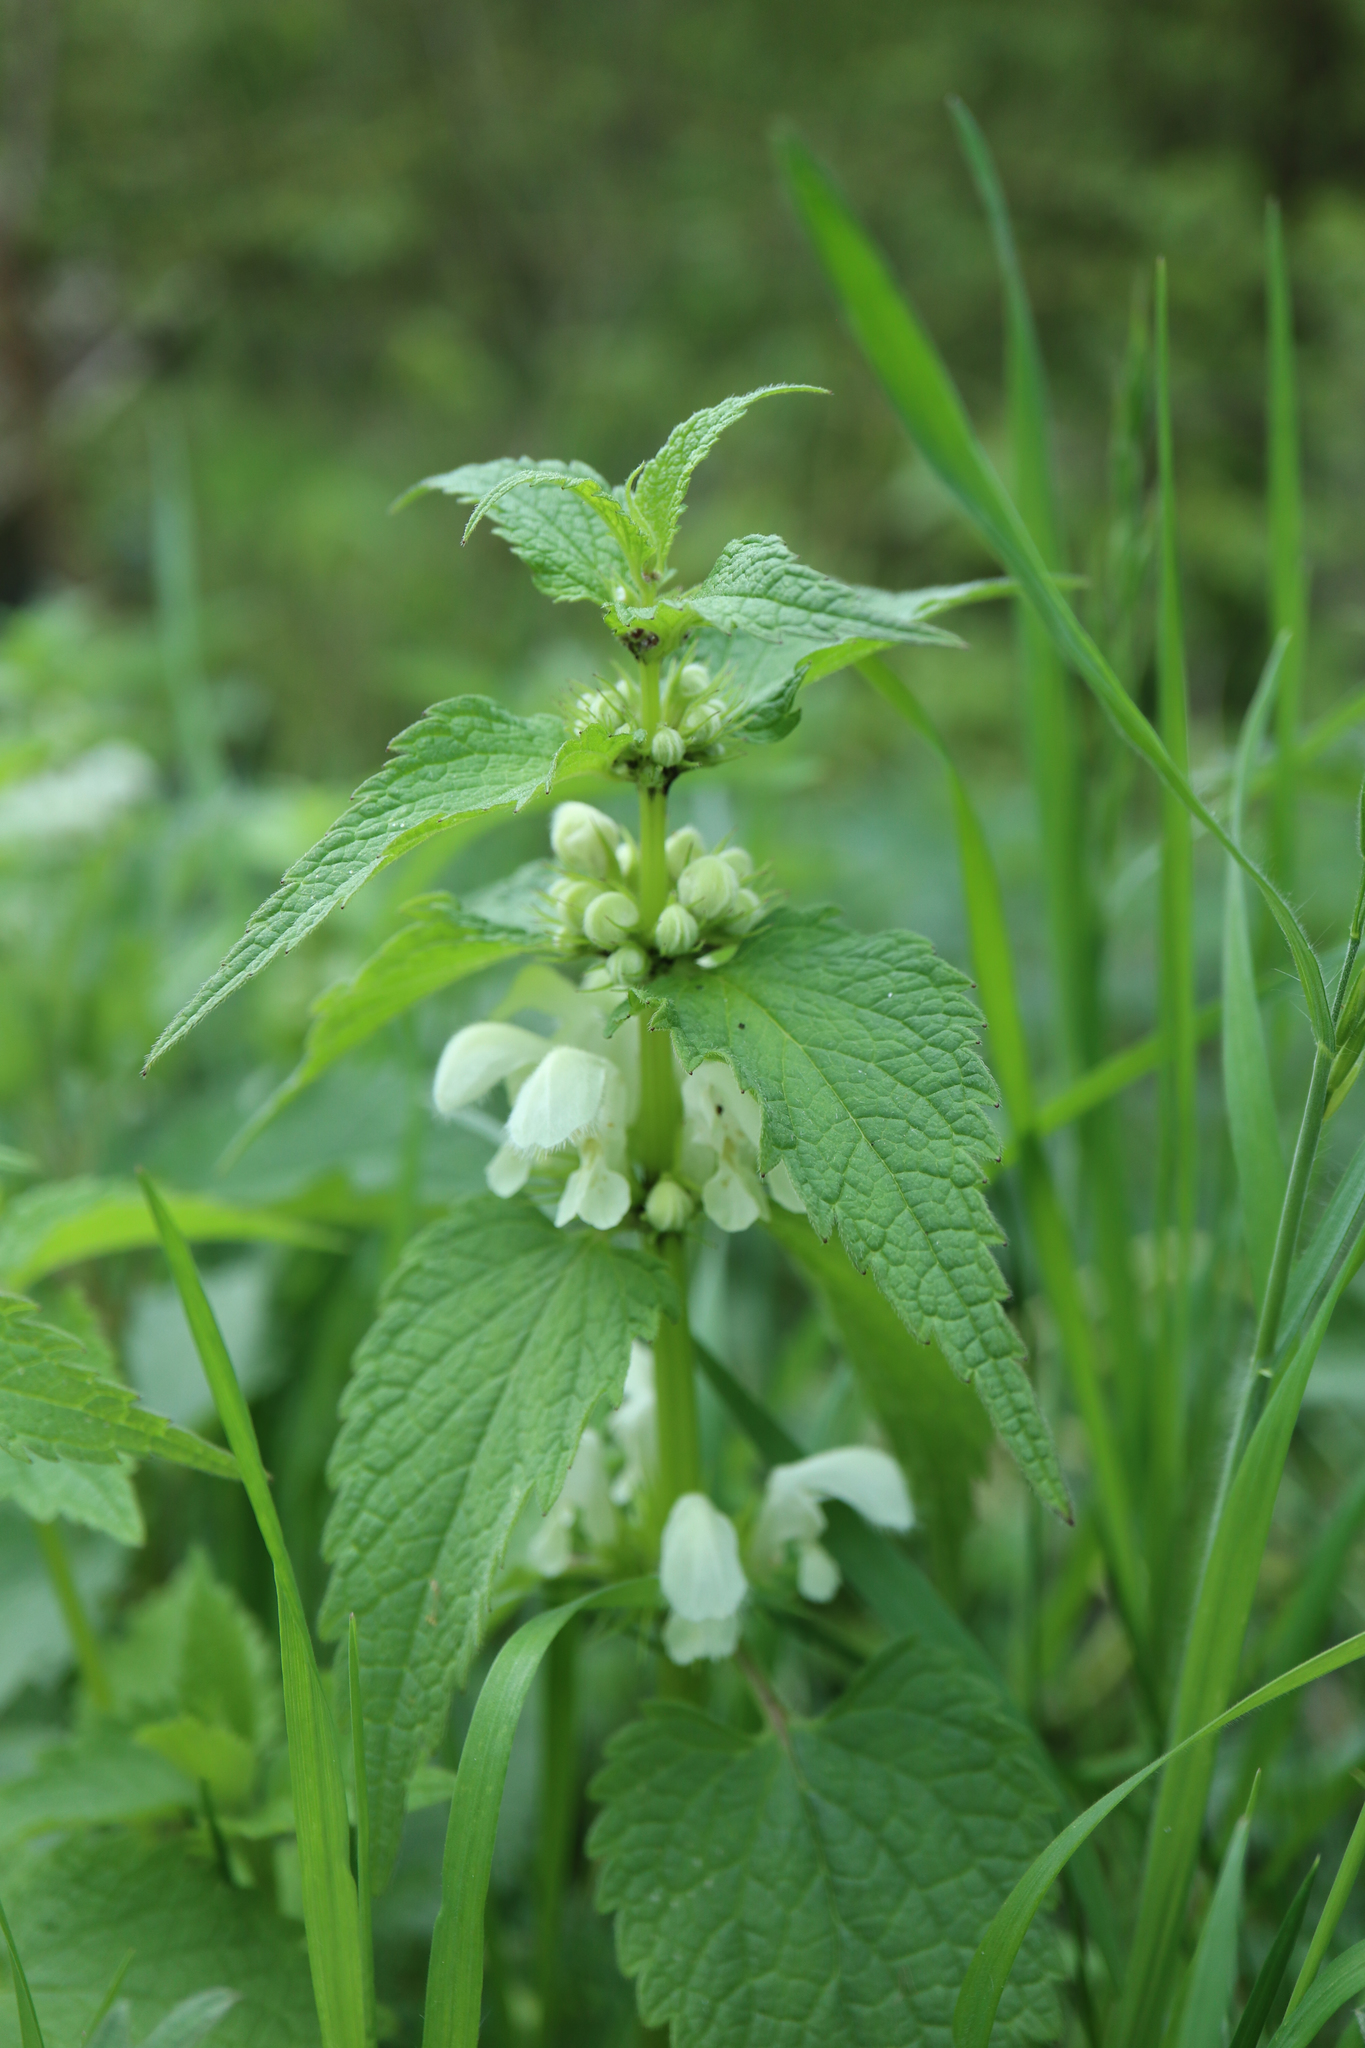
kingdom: Plantae
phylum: Tracheophyta
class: Magnoliopsida
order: Lamiales
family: Lamiaceae
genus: Lamium
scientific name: Lamium album
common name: White dead-nettle
